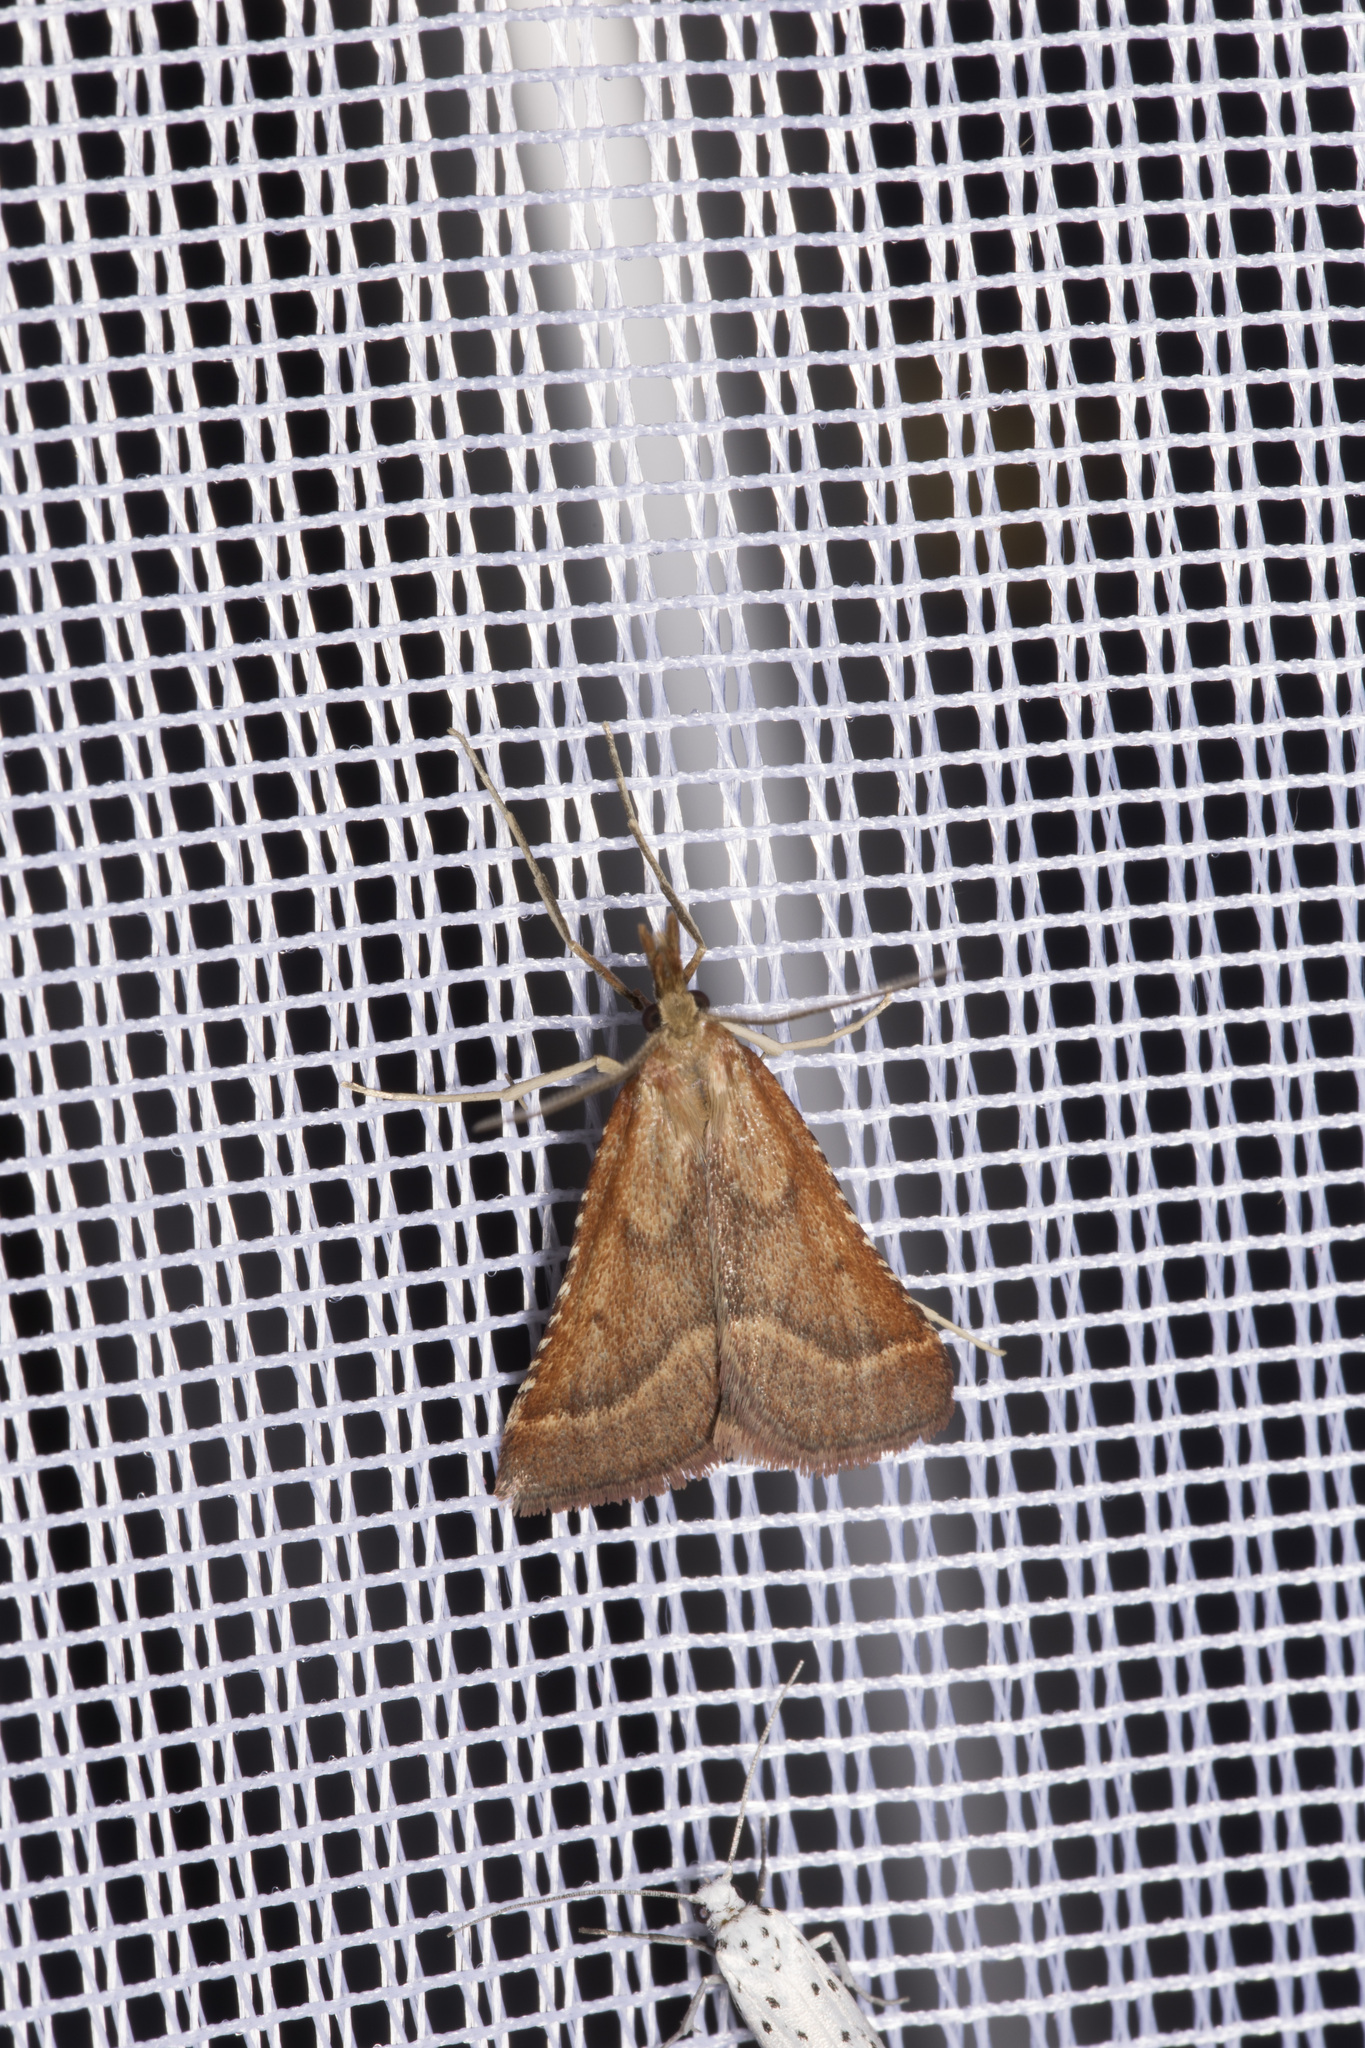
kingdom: Animalia
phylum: Arthropoda
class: Insecta
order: Lepidoptera
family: Pyralidae
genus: Synaphe
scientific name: Synaphe punctalis
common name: Long-legged tabby
